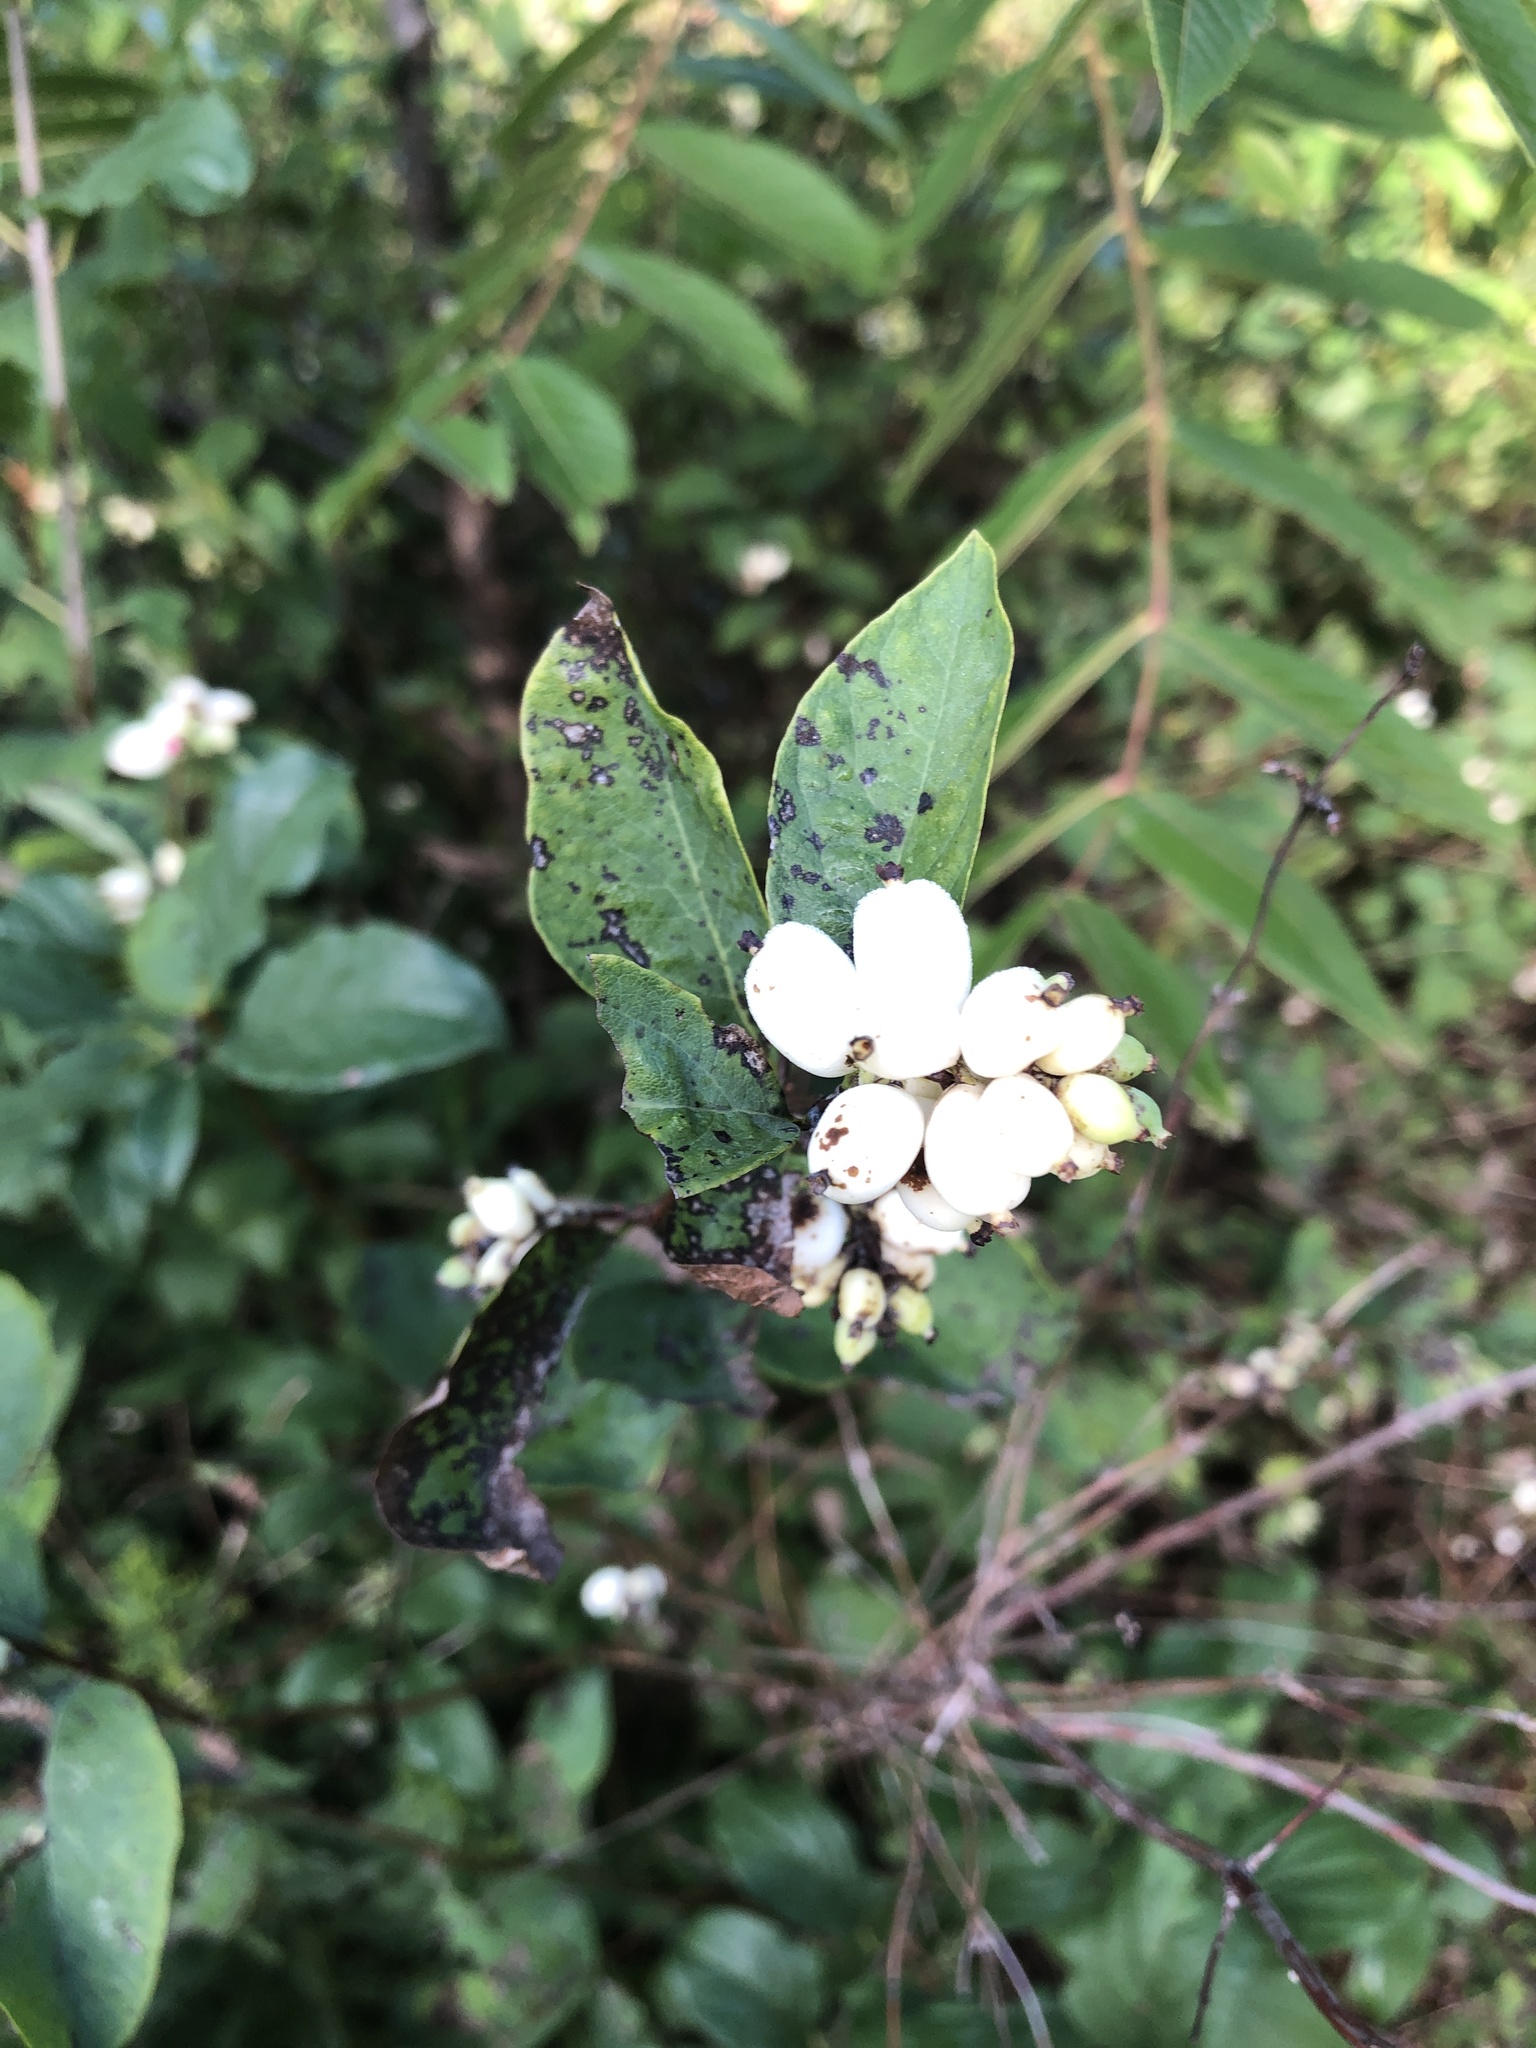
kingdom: Plantae
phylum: Tracheophyta
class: Magnoliopsida
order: Dipsacales
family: Caprifoliaceae
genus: Symphoricarpos
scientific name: Symphoricarpos albus
